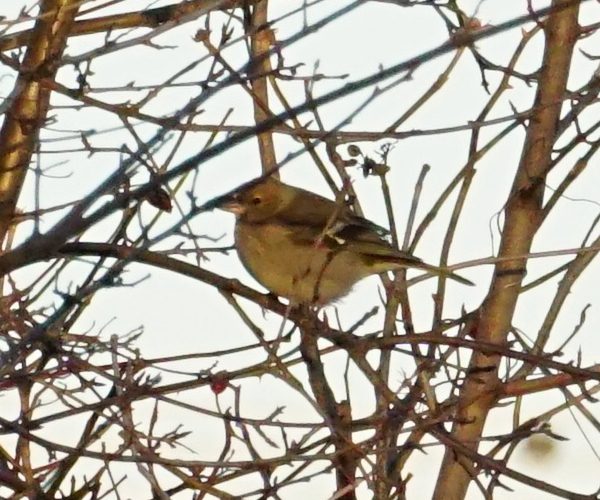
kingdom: Animalia
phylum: Chordata
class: Aves
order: Passeriformes
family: Fringillidae
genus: Fringilla
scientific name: Fringilla coelebs
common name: Common chaffinch
